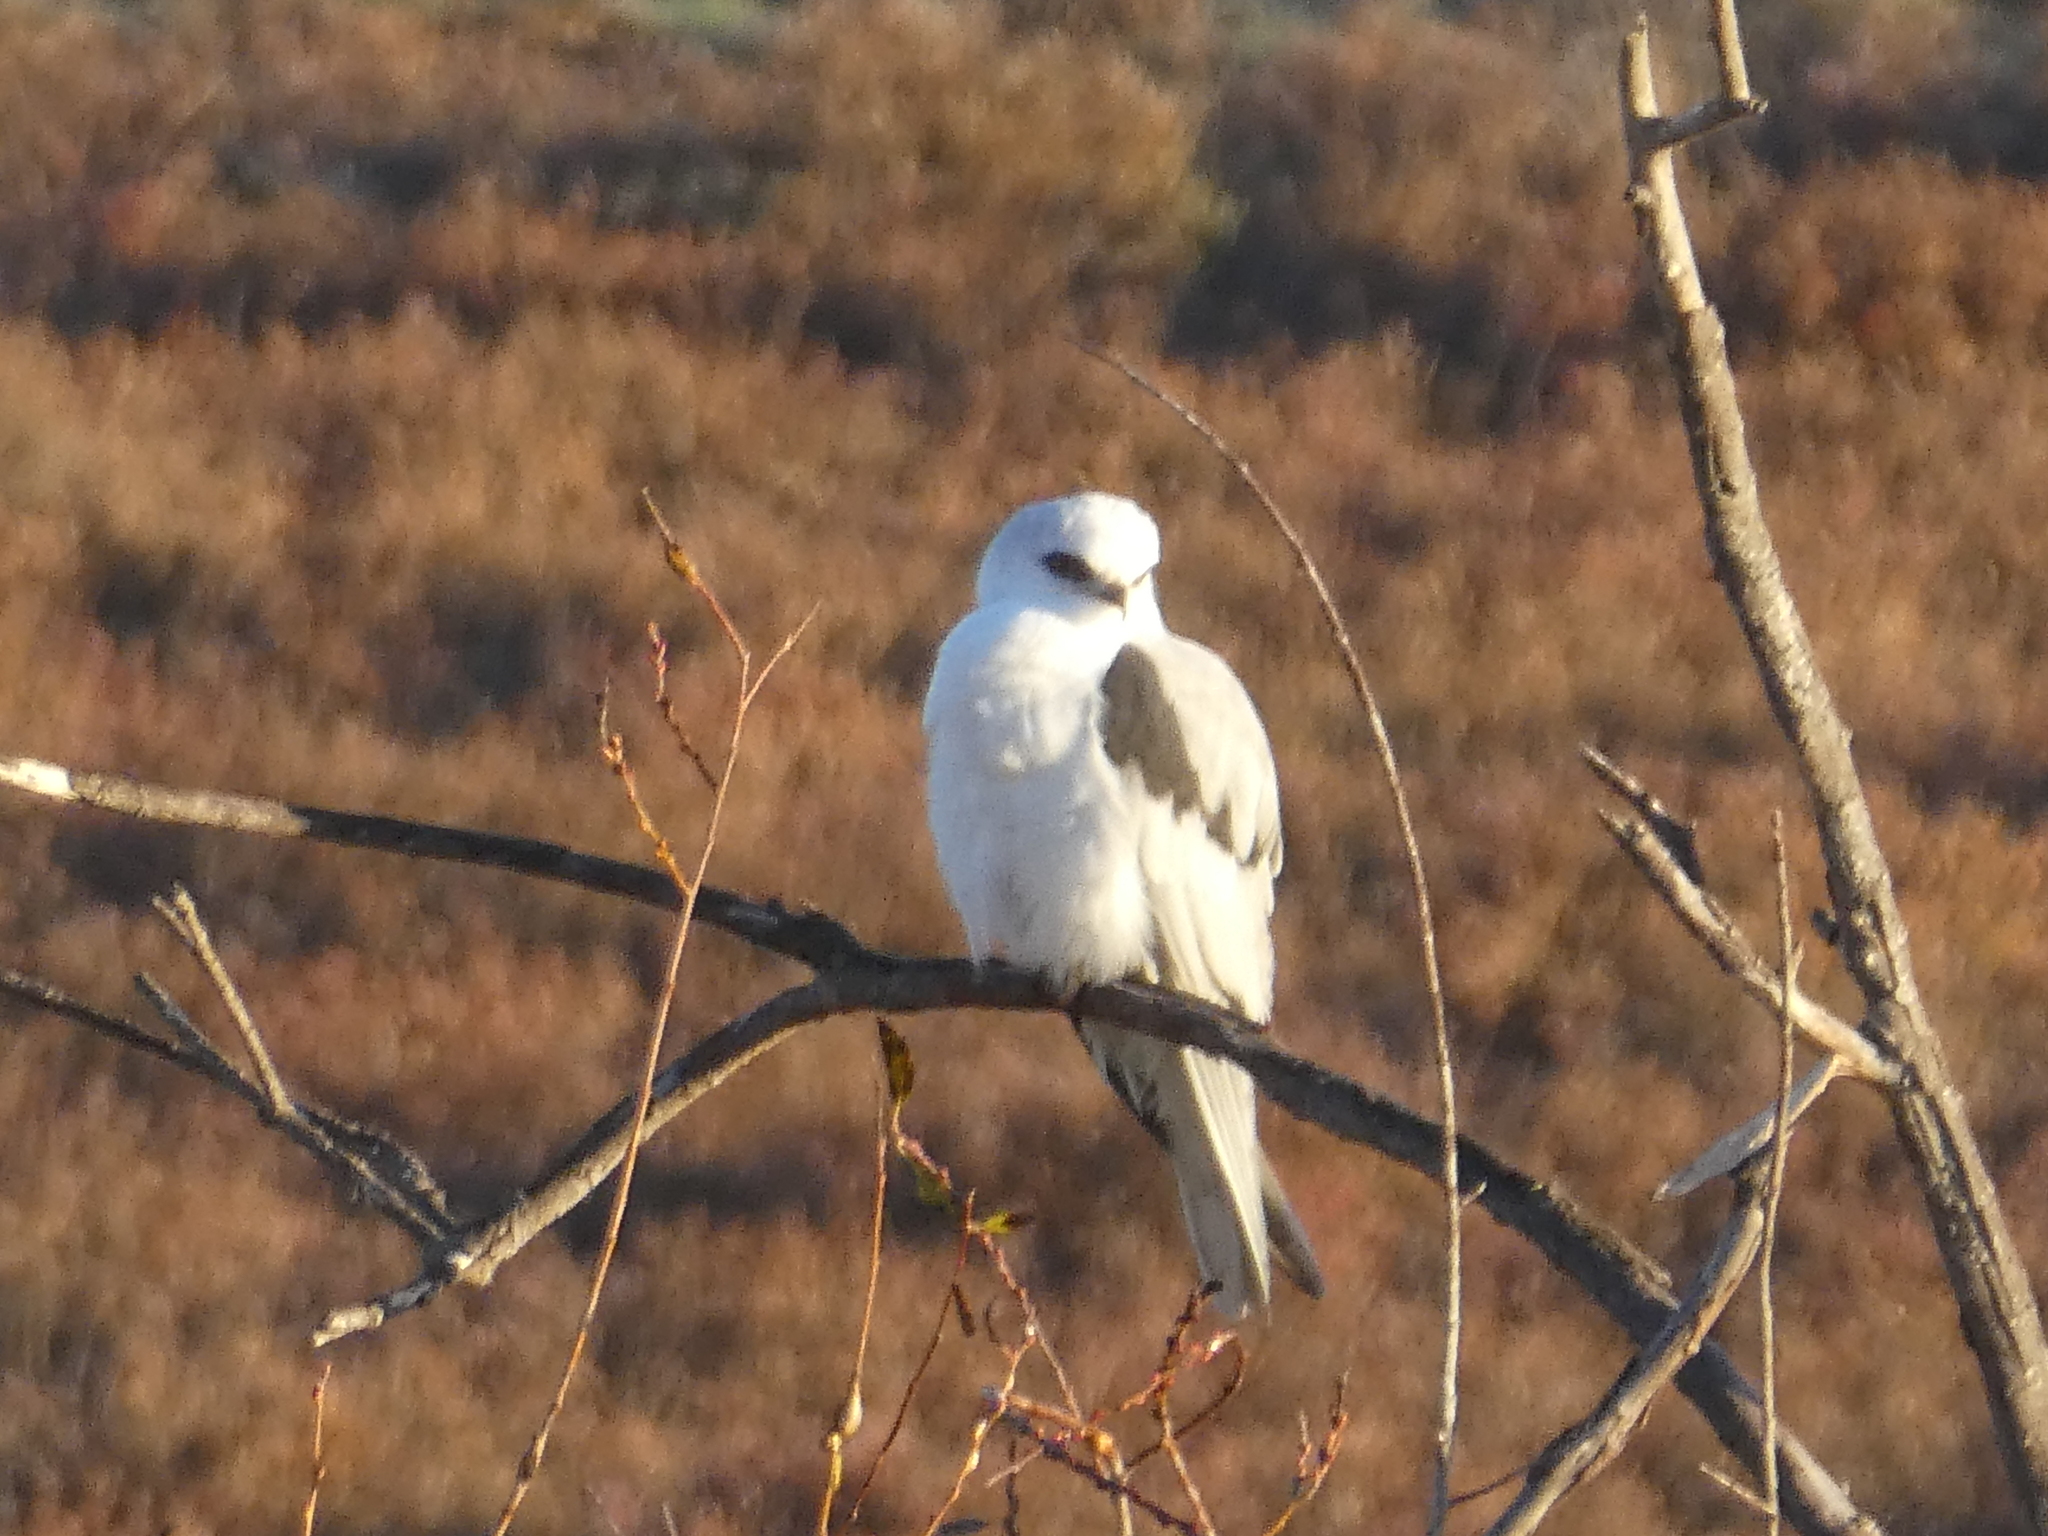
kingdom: Animalia
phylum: Chordata
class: Aves
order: Accipitriformes
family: Accipitridae
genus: Elanus
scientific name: Elanus leucurus
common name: White-tailed kite
